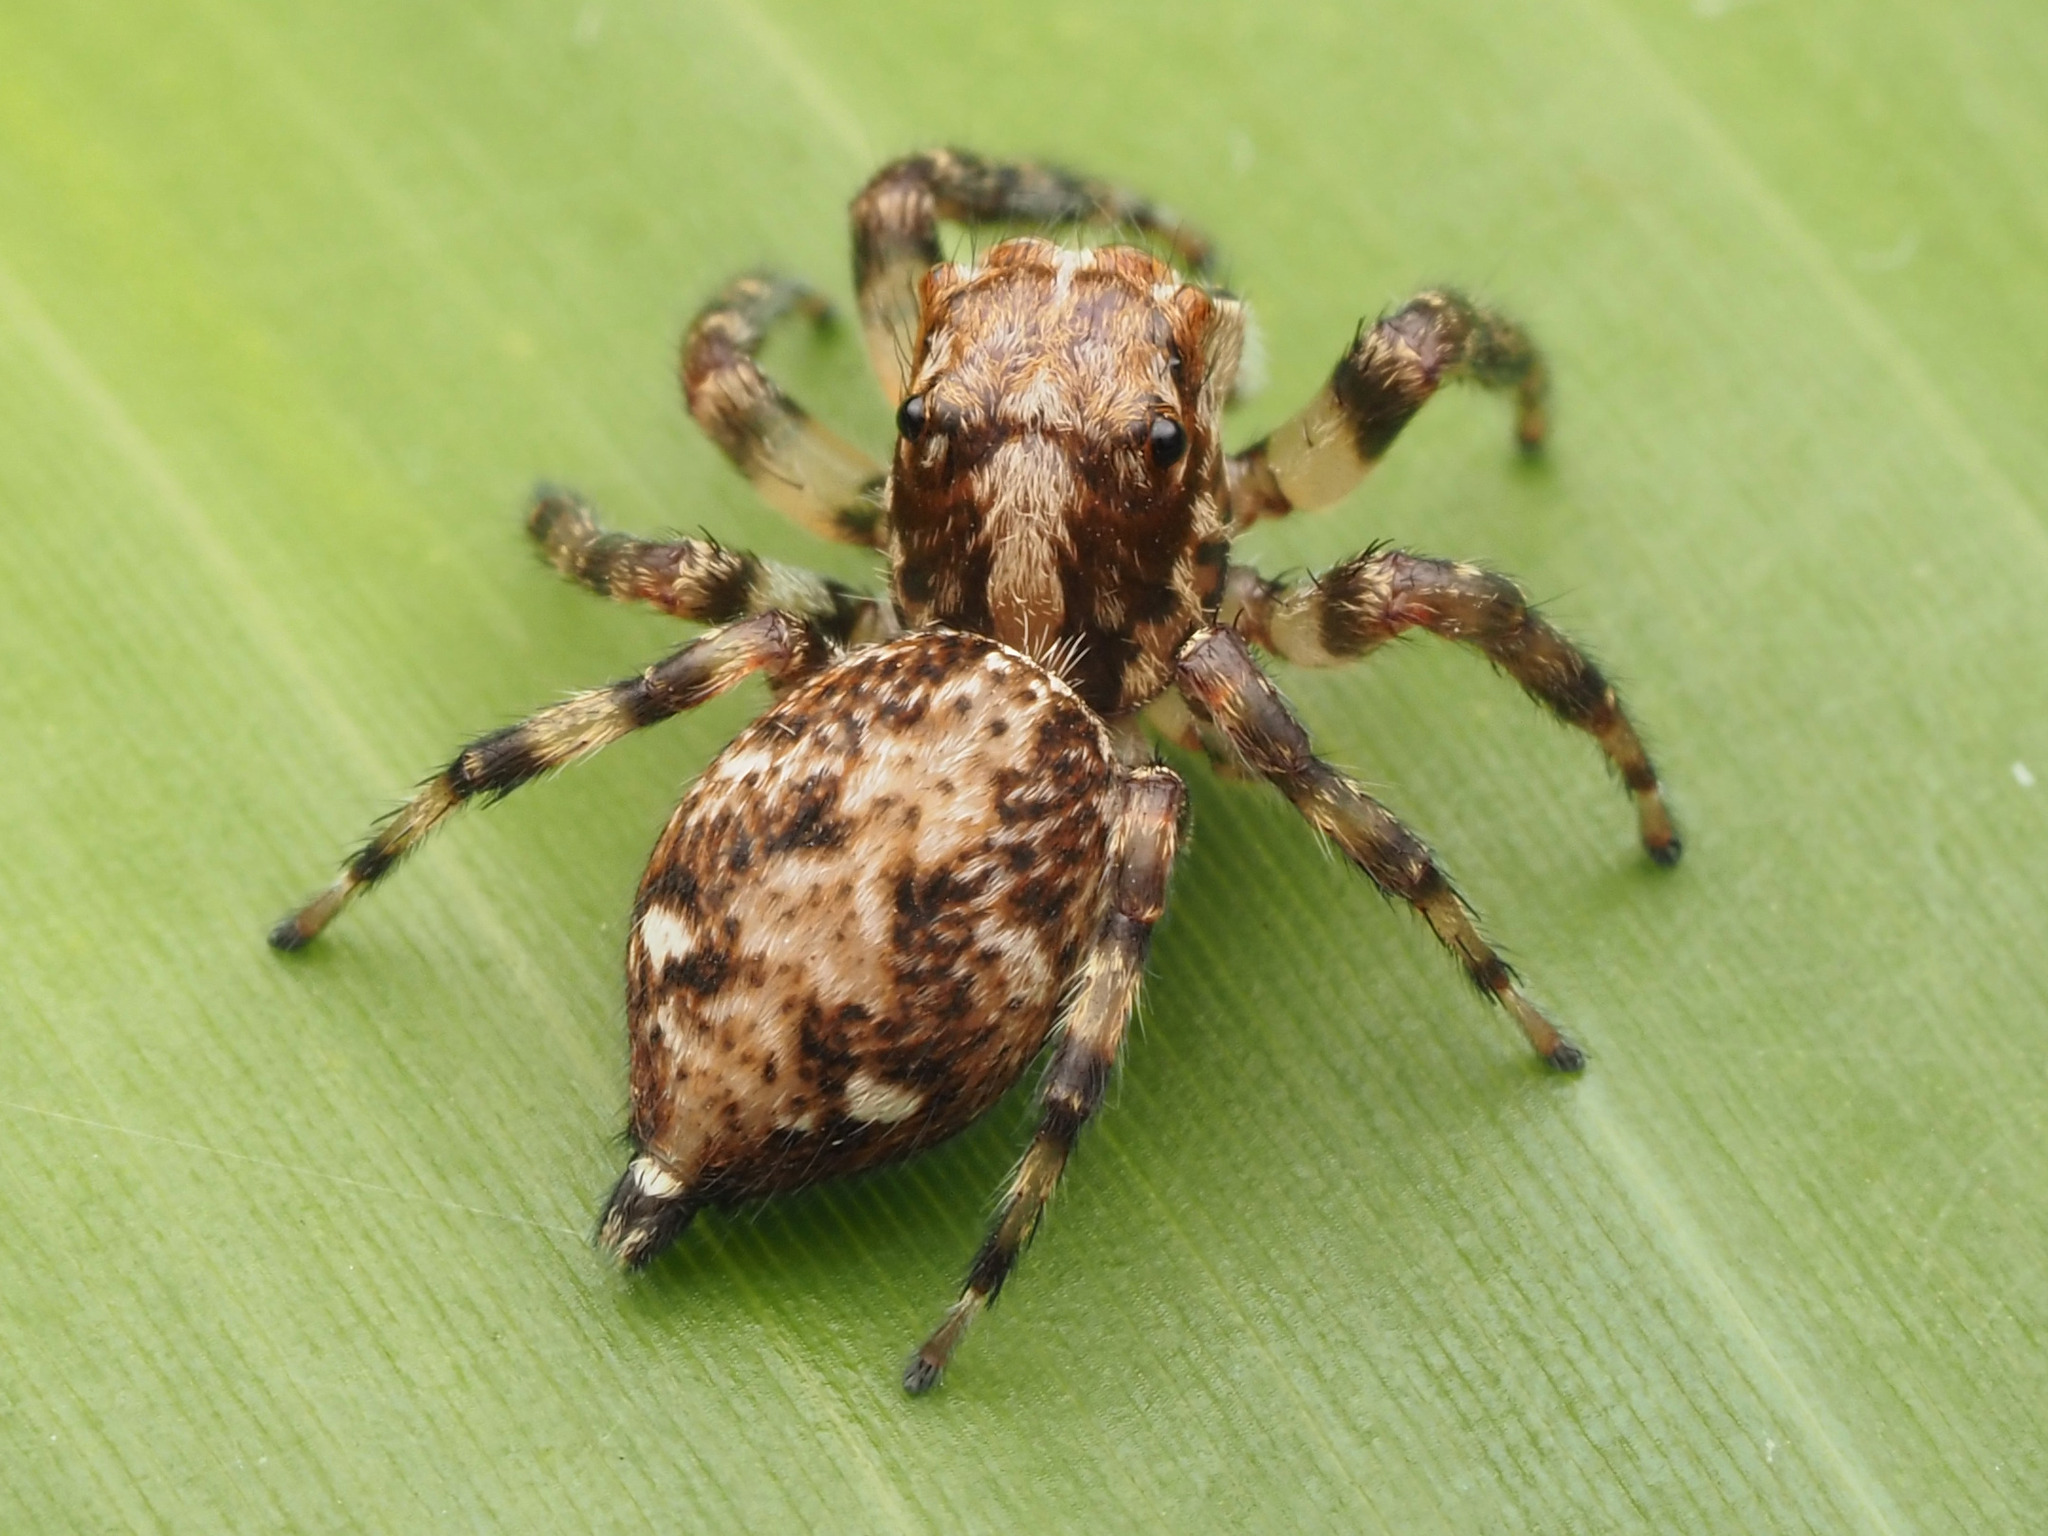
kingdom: Animalia
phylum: Arthropoda
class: Arachnida
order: Araneae
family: Salticidae
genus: Xanthofreya
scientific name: Xanthofreya bicuspidata
